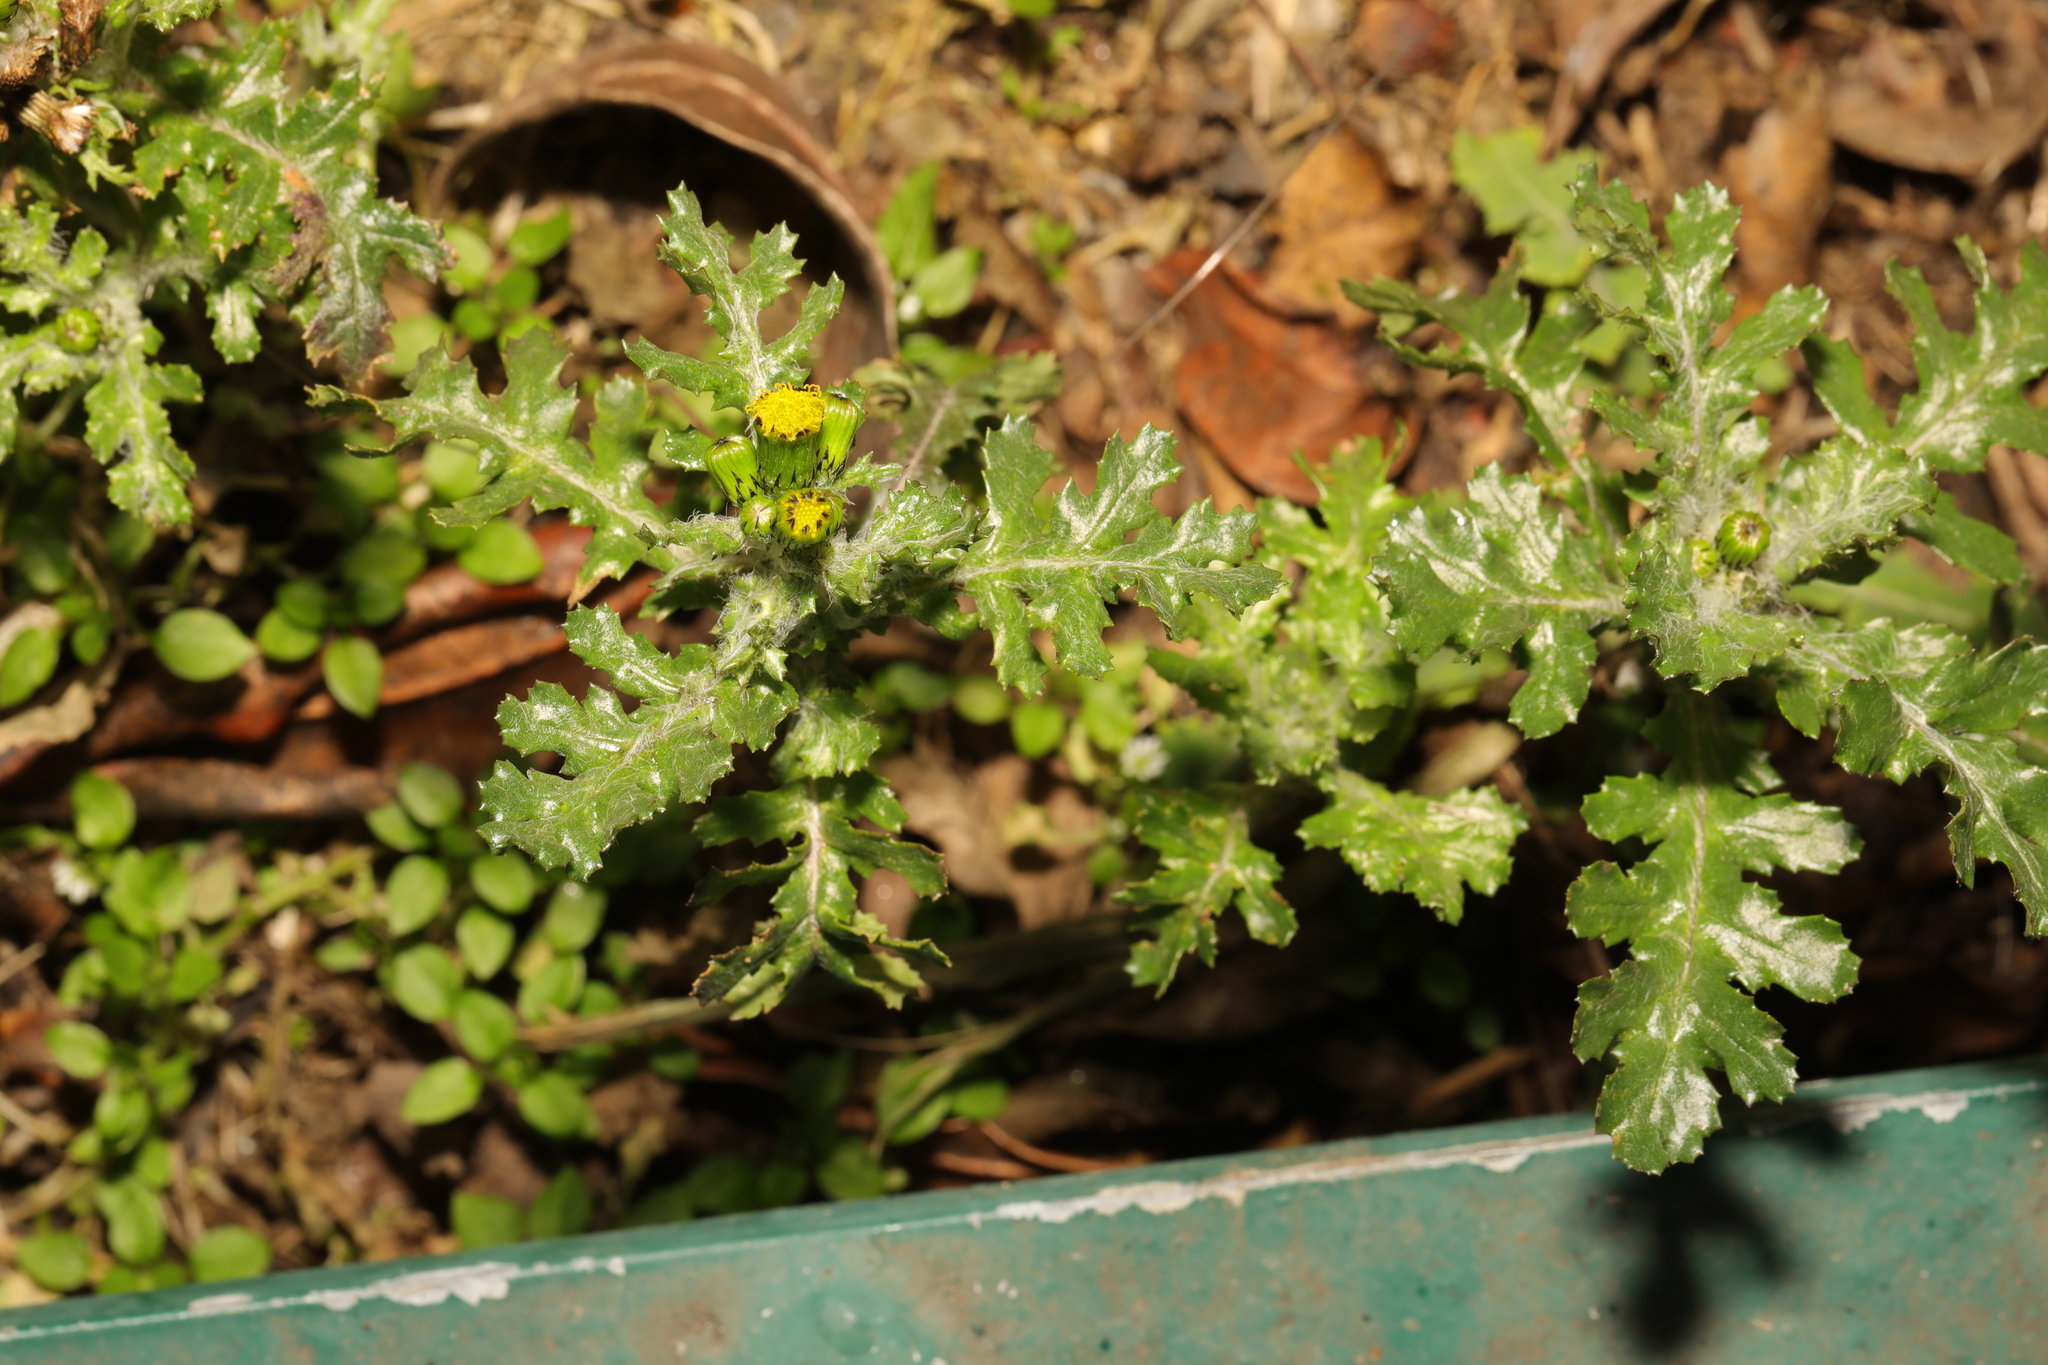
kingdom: Plantae
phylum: Tracheophyta
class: Magnoliopsida
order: Asterales
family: Asteraceae
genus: Senecio
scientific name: Senecio vulgaris
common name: Old-man-in-the-spring
